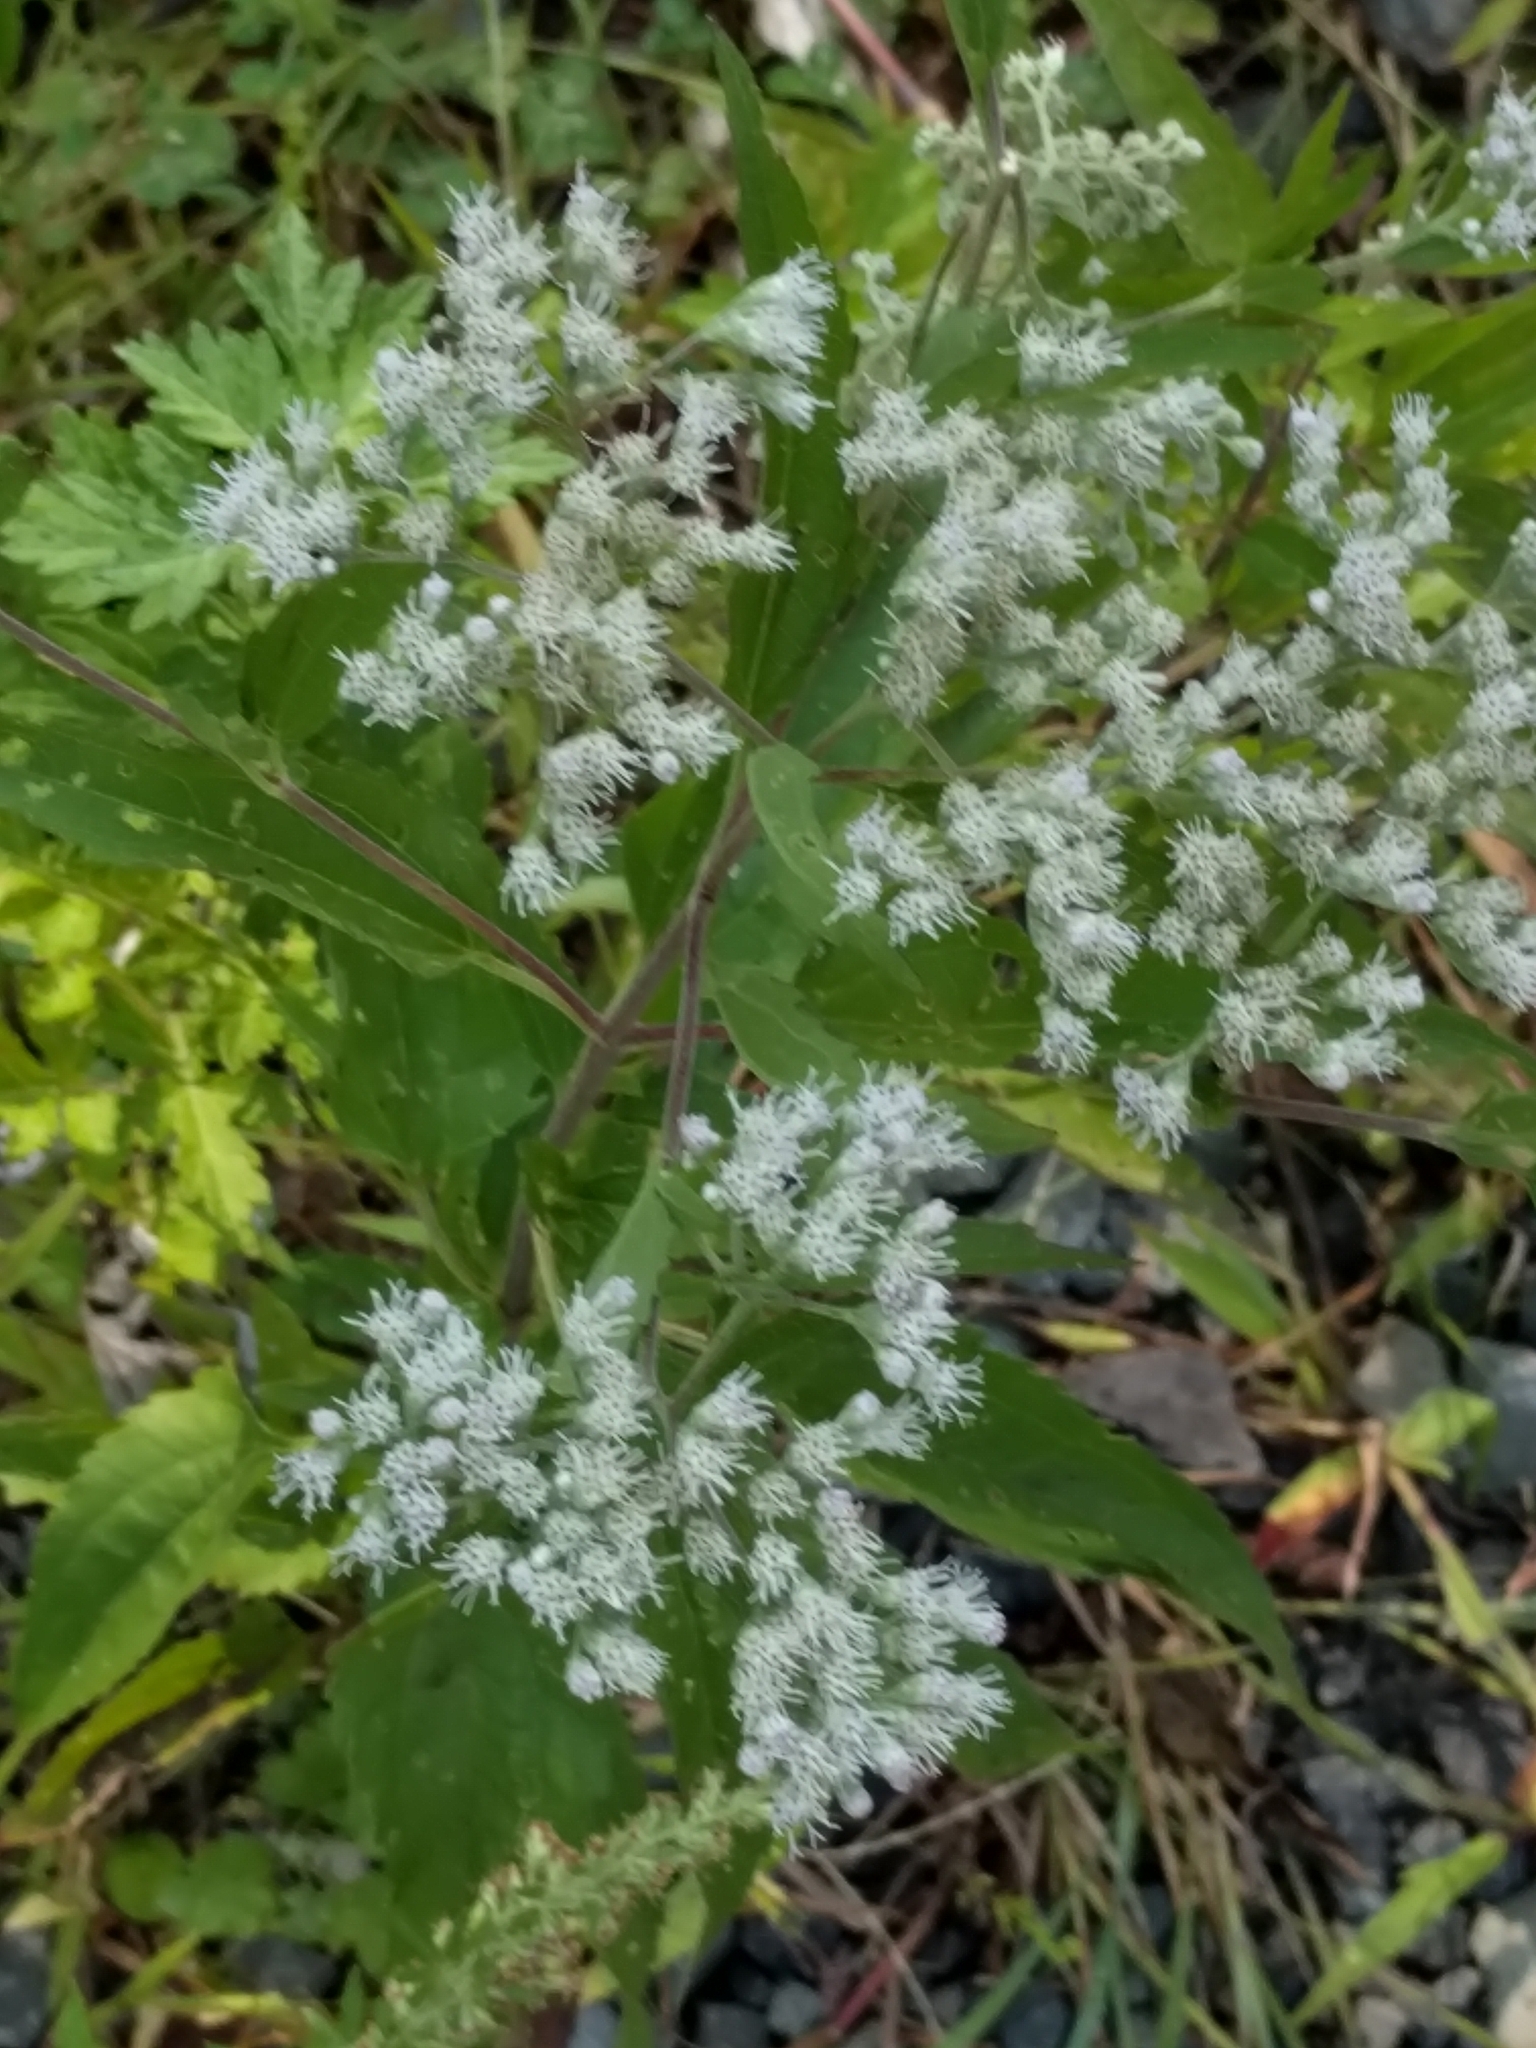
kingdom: Plantae
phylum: Tracheophyta
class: Magnoliopsida
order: Asterales
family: Asteraceae
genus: Eupatorium
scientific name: Eupatorium serotinum
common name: Late boneset
